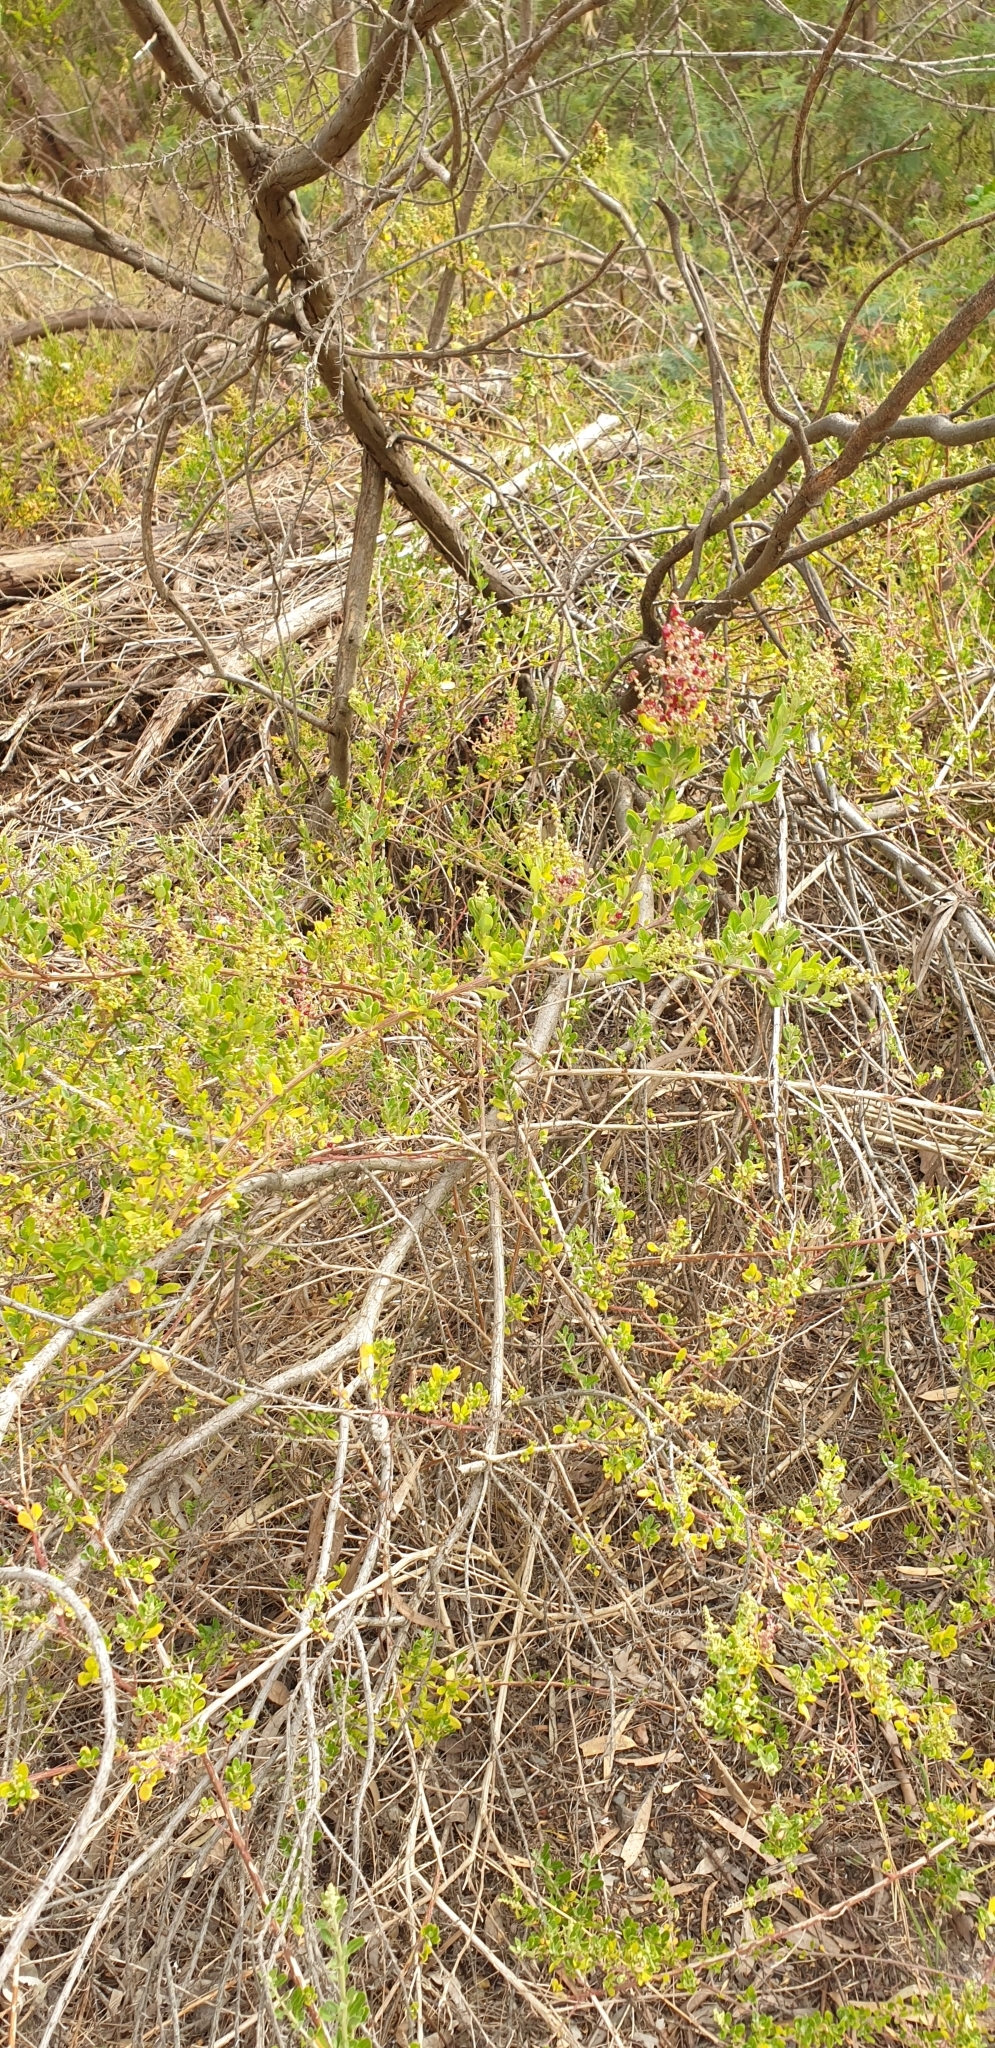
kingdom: Plantae
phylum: Tracheophyta
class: Magnoliopsida
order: Caryophyllales
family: Amaranthaceae
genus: Chenopodium
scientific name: Chenopodium candolleanum
